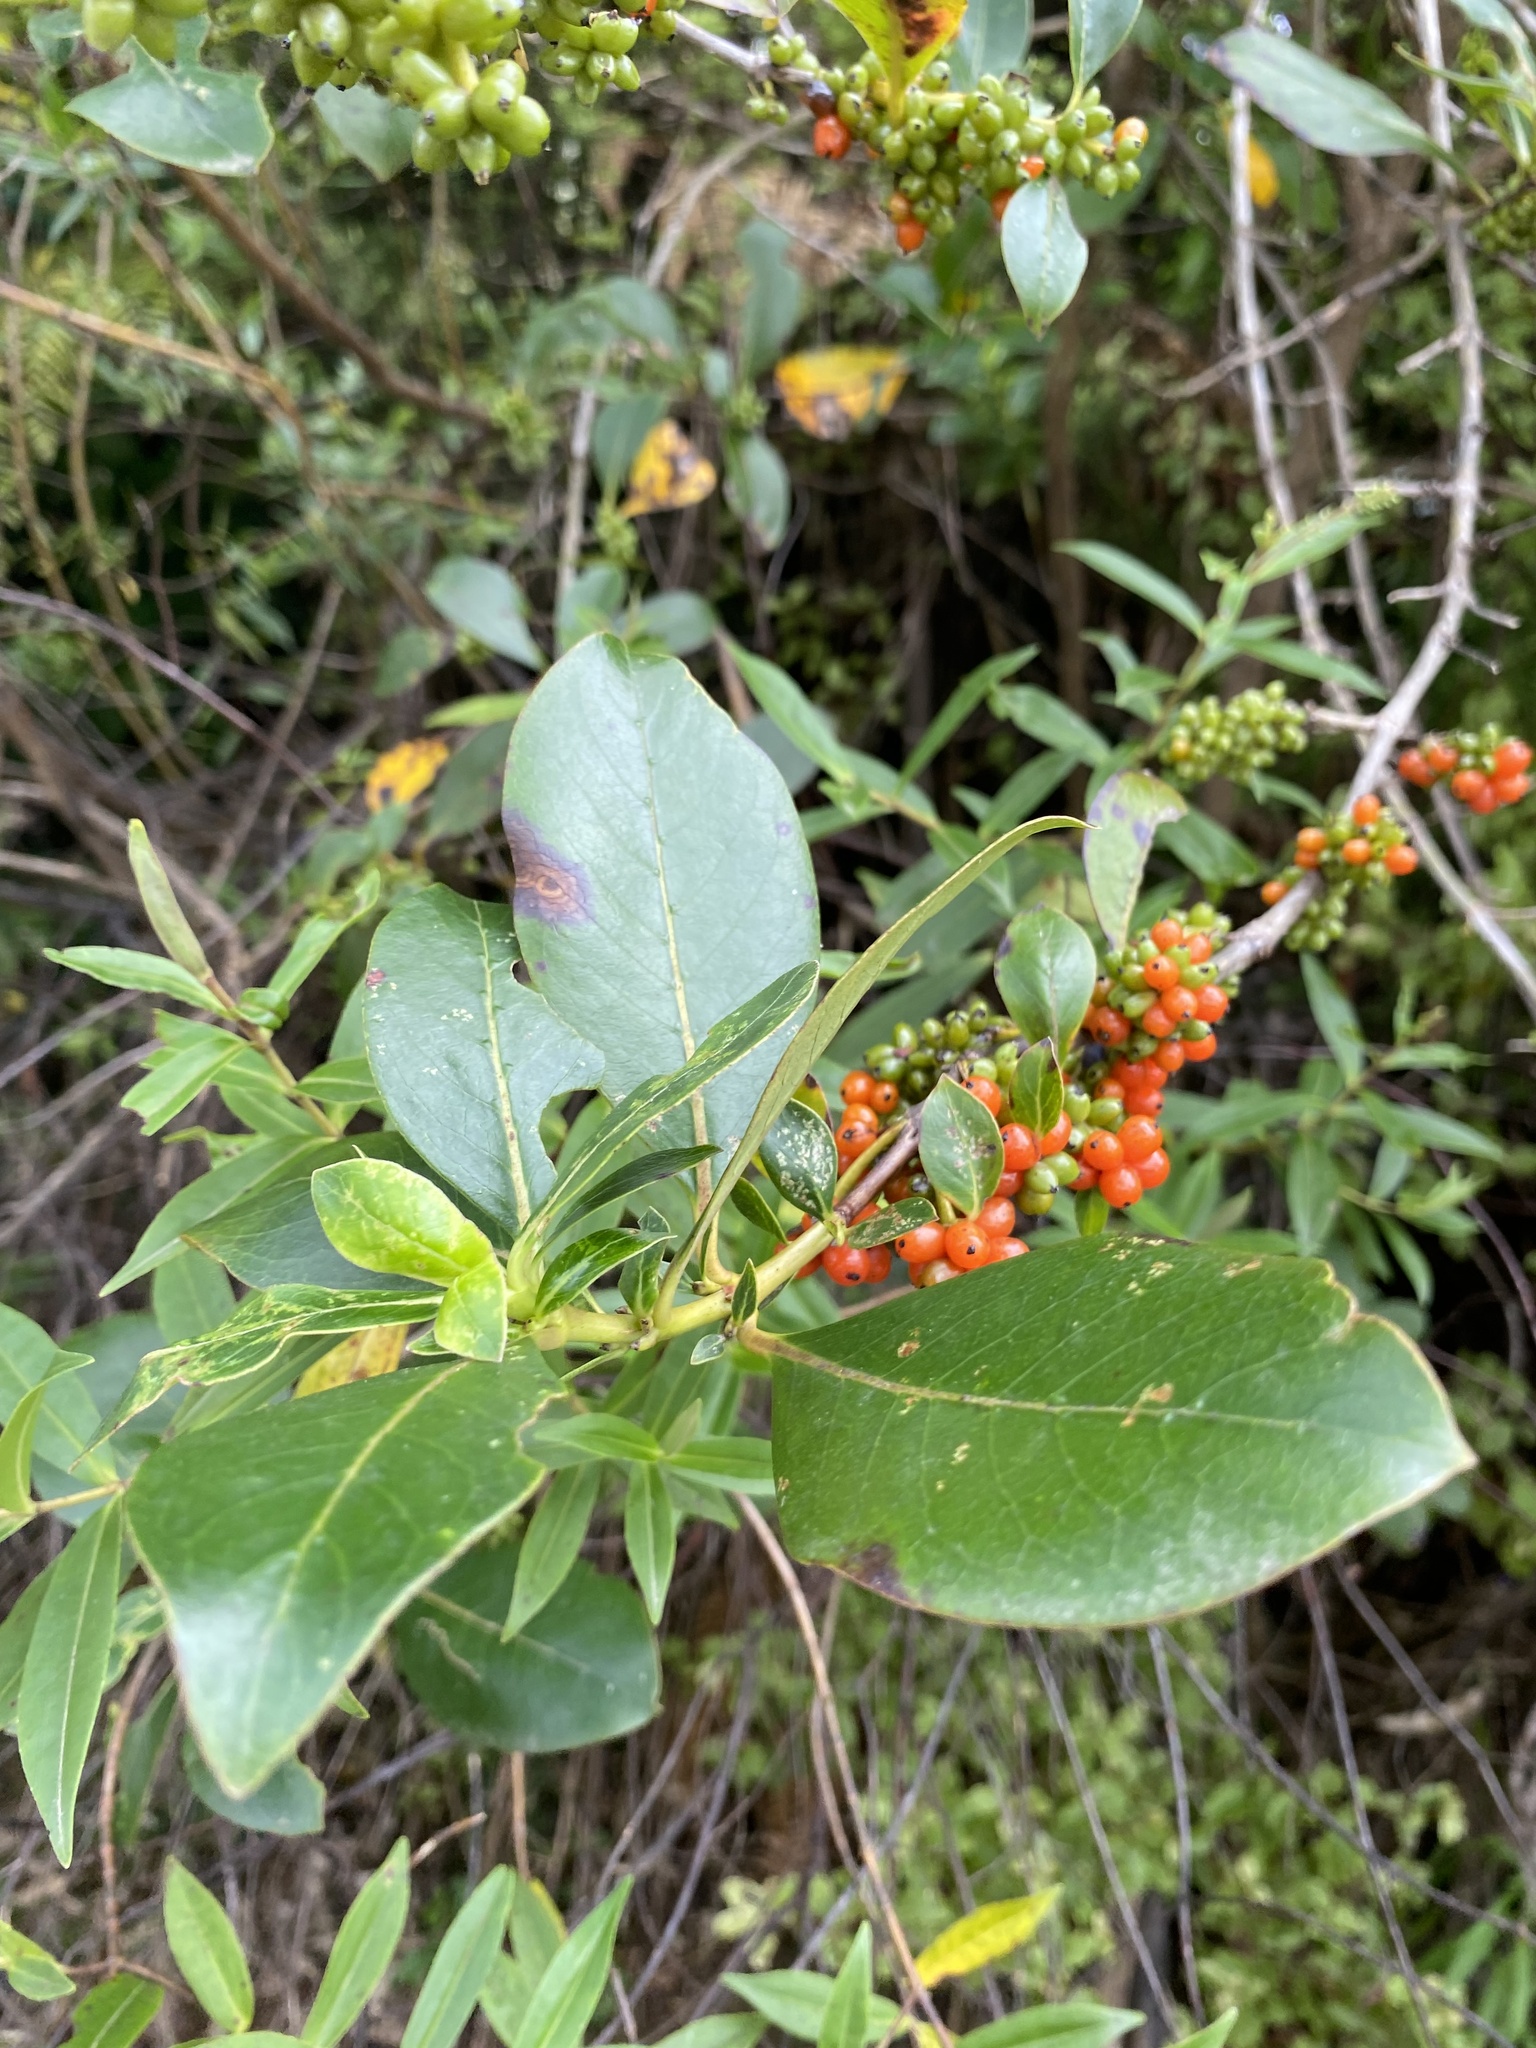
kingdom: Plantae
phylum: Tracheophyta
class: Magnoliopsida
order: Gentianales
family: Rubiaceae
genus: Coprosma
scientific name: Coprosma robusta
